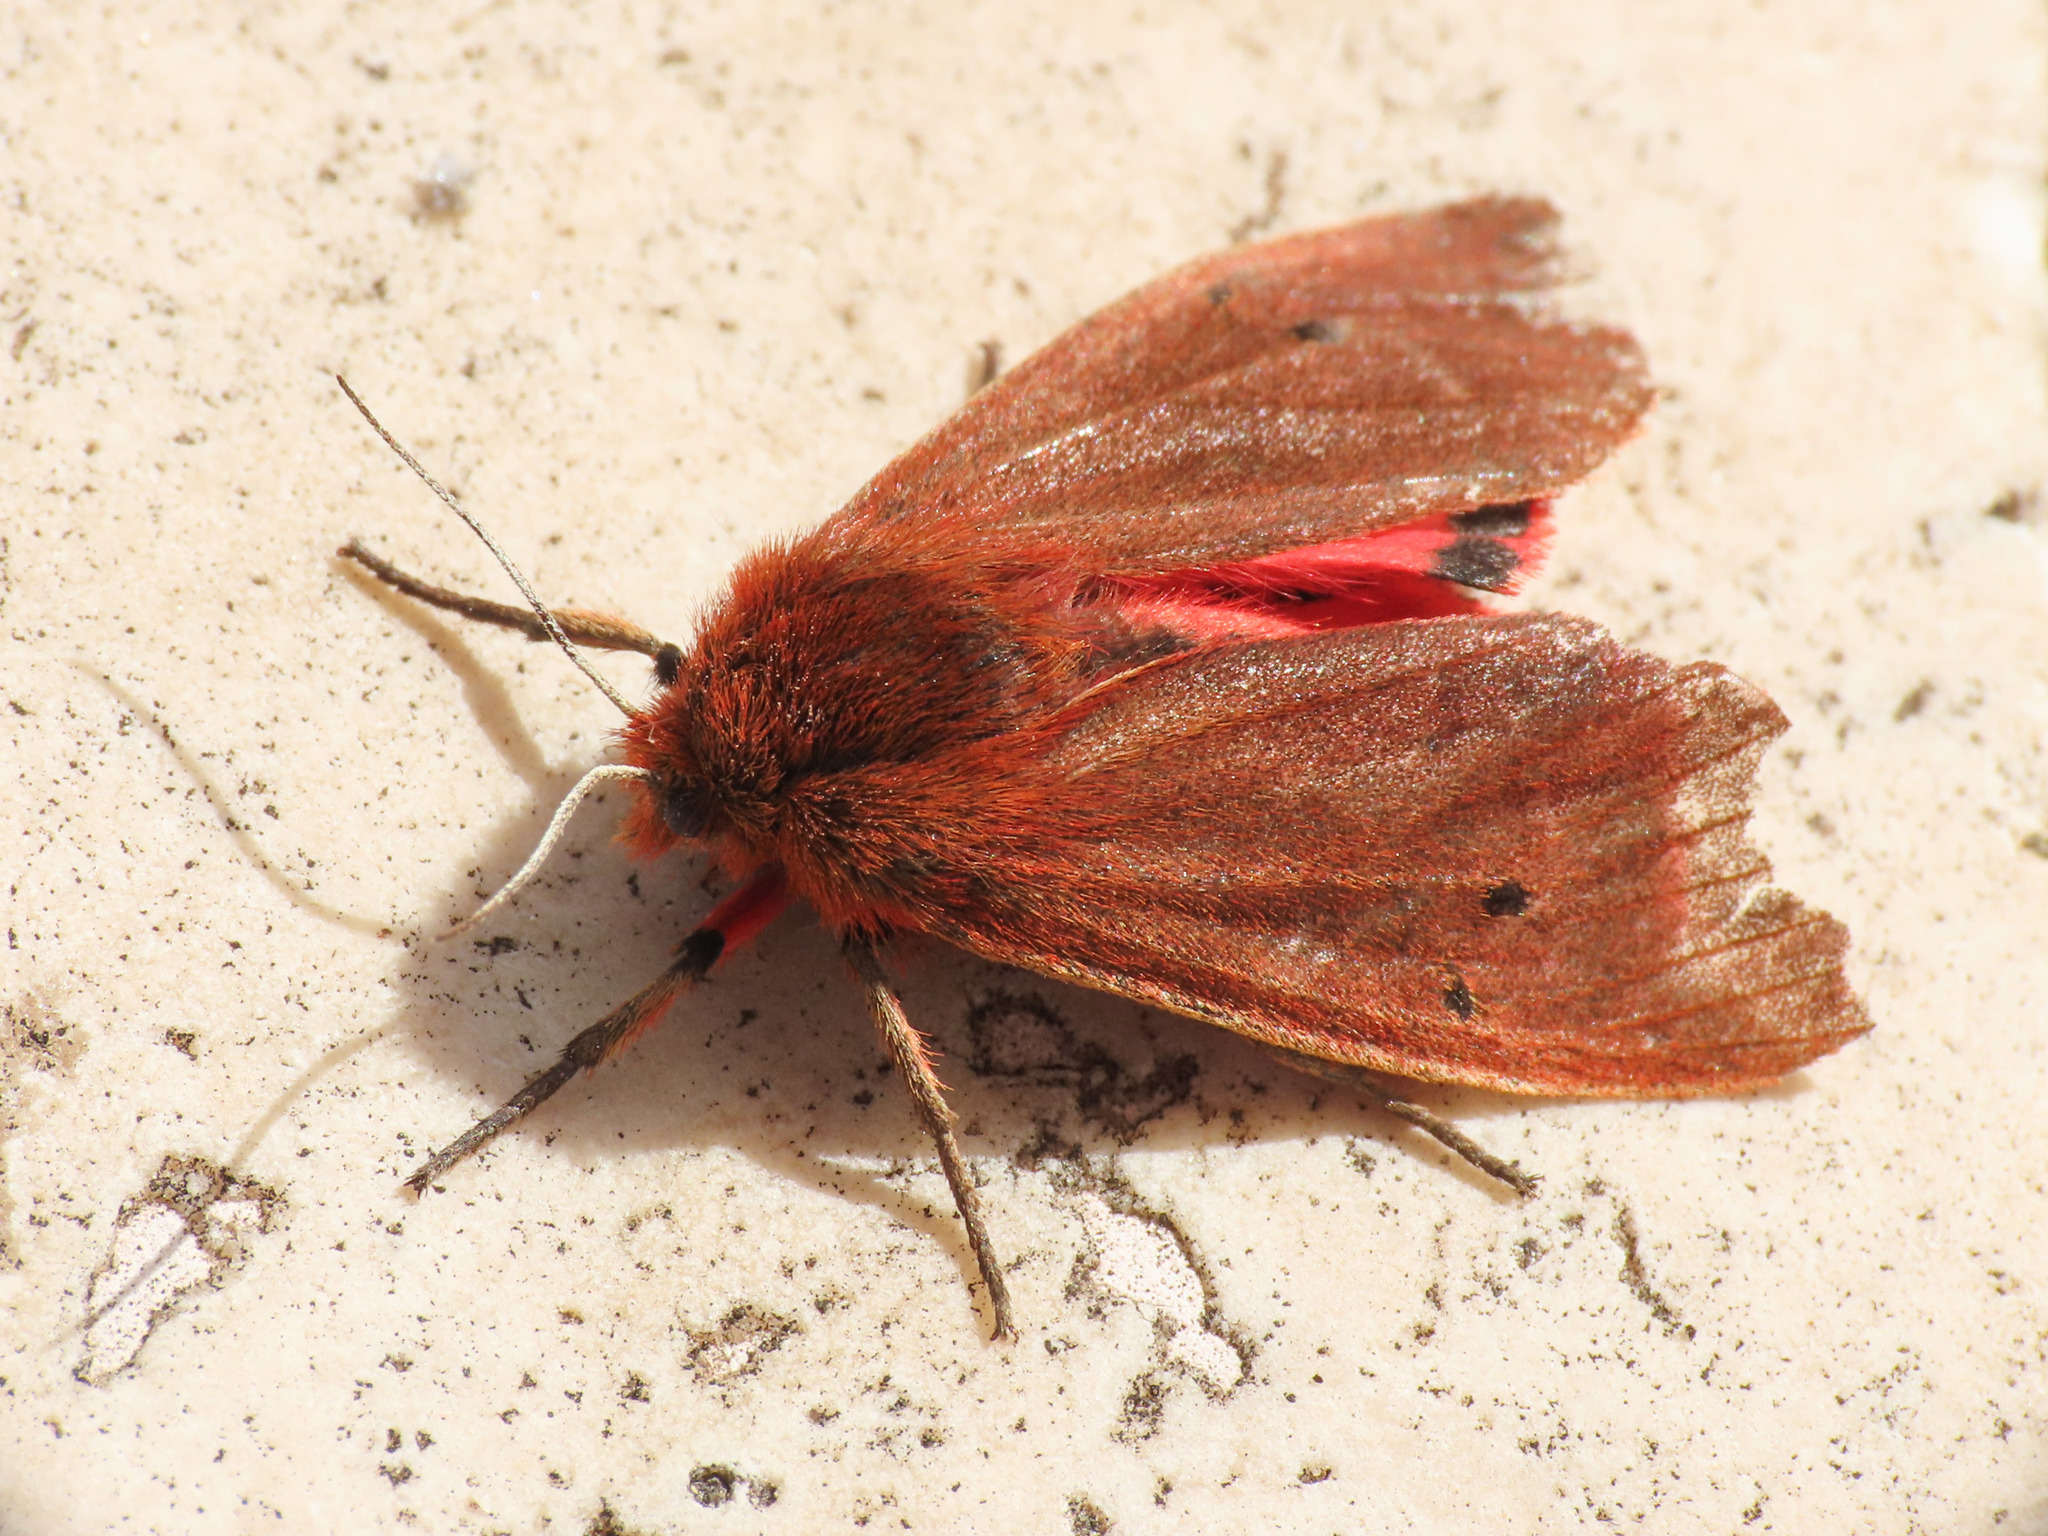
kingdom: Animalia
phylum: Arthropoda
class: Insecta
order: Lepidoptera
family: Erebidae
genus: Phragmatobia
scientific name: Phragmatobia fuliginosa
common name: Ruby tiger
